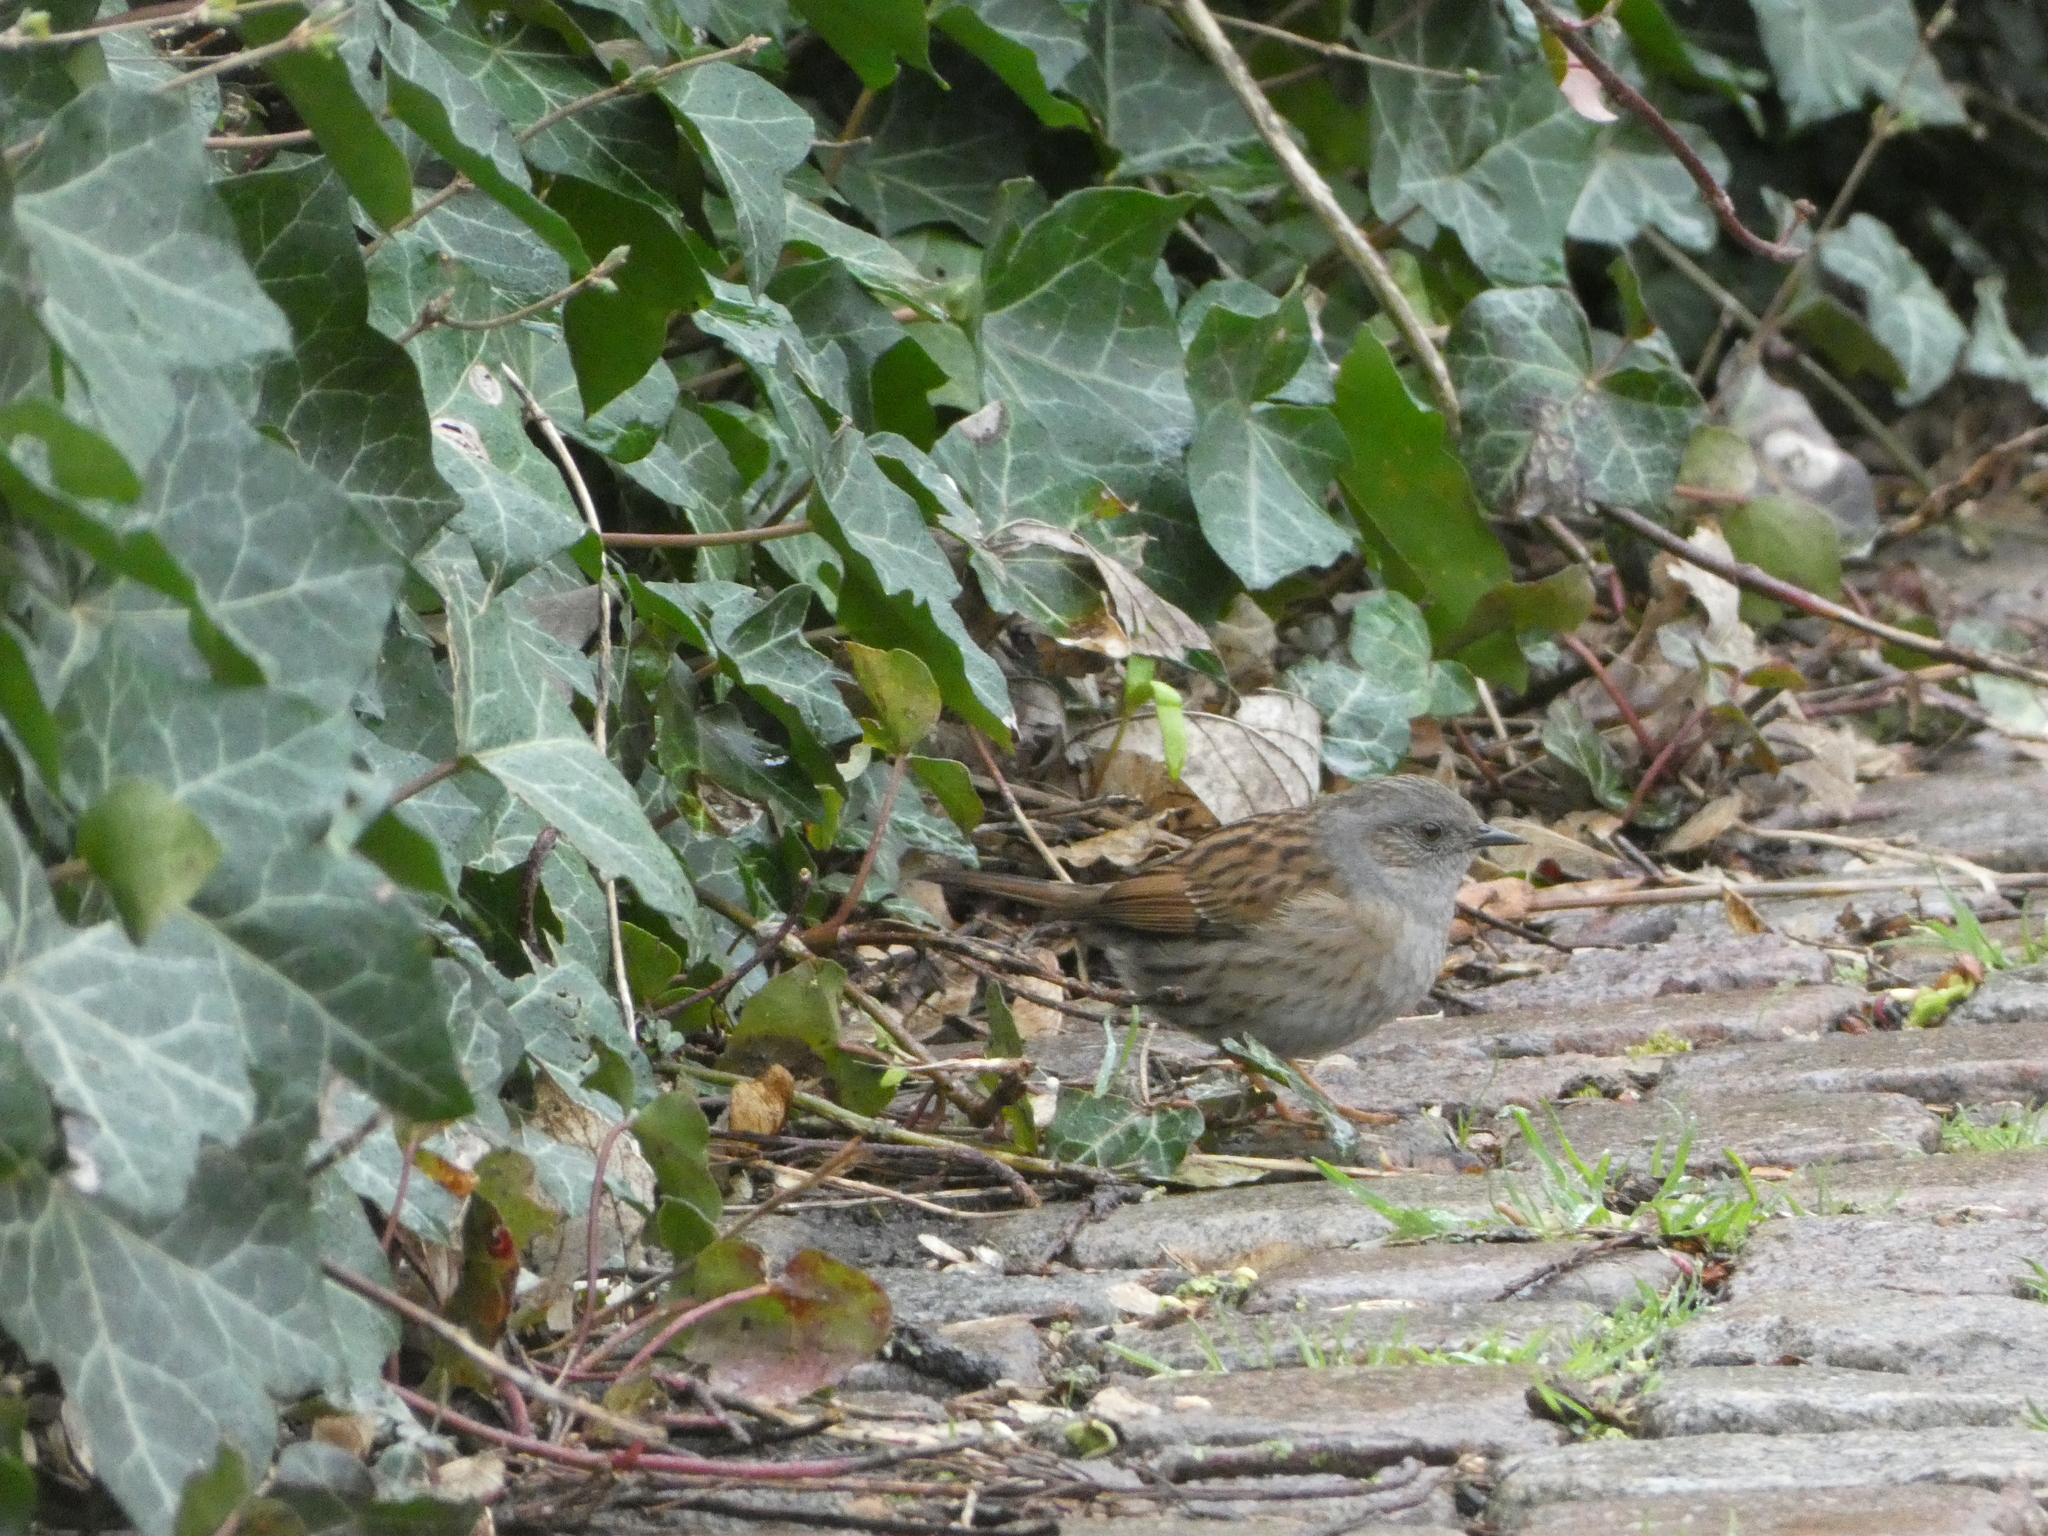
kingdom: Animalia
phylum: Chordata
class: Aves
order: Passeriformes
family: Prunellidae
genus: Prunella
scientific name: Prunella modularis
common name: Dunnock
